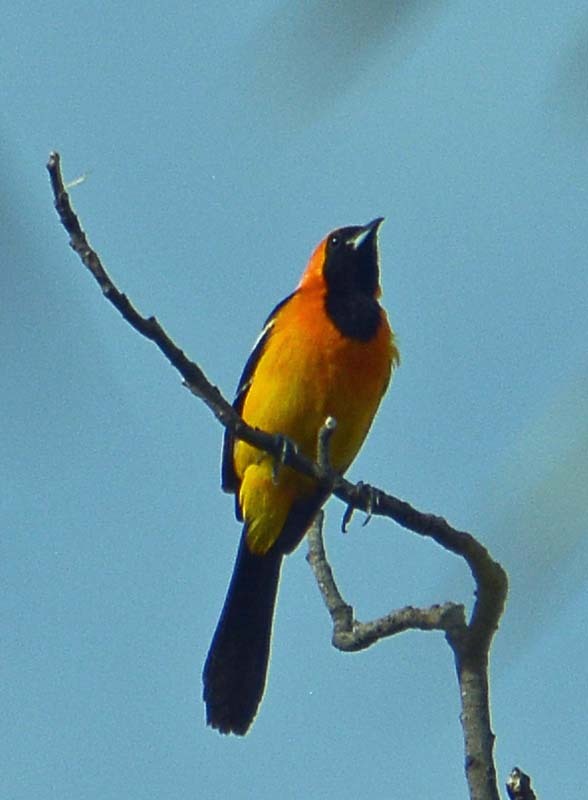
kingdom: Animalia
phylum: Chordata
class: Aves
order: Passeriformes
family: Icteridae
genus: Icterus
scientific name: Icterus cucullatus
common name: Hooded oriole
